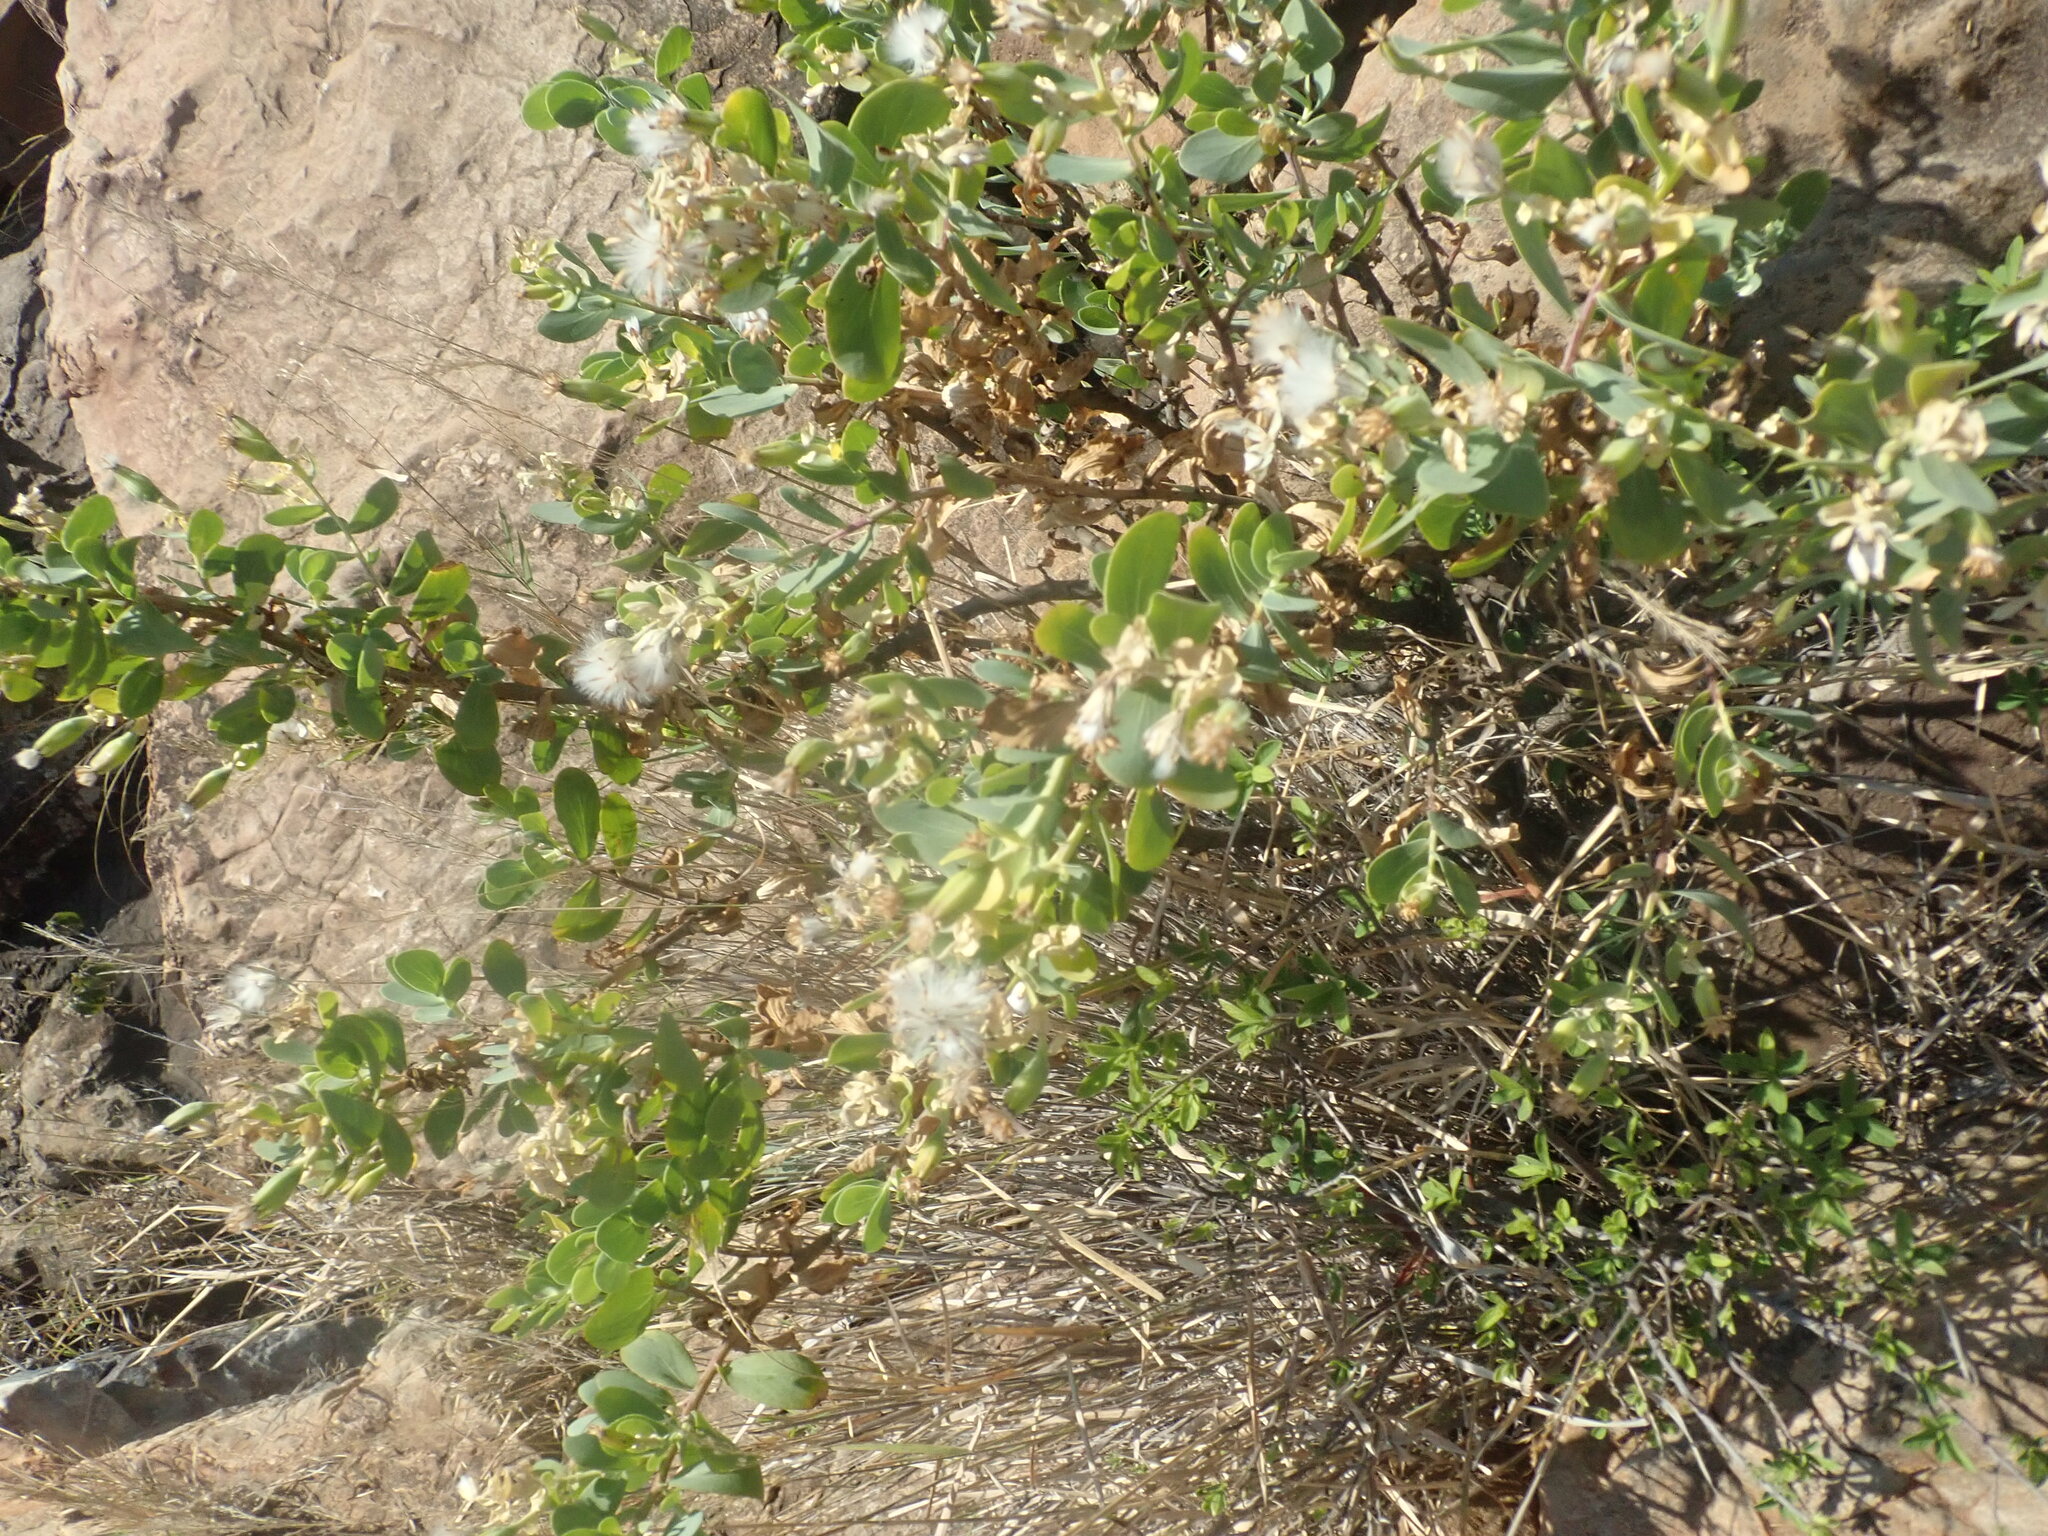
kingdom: Plantae
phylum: Tracheophyta
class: Magnoliopsida
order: Asterales
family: Asteraceae
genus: Lopholaena
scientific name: Lopholaena coriifolia
